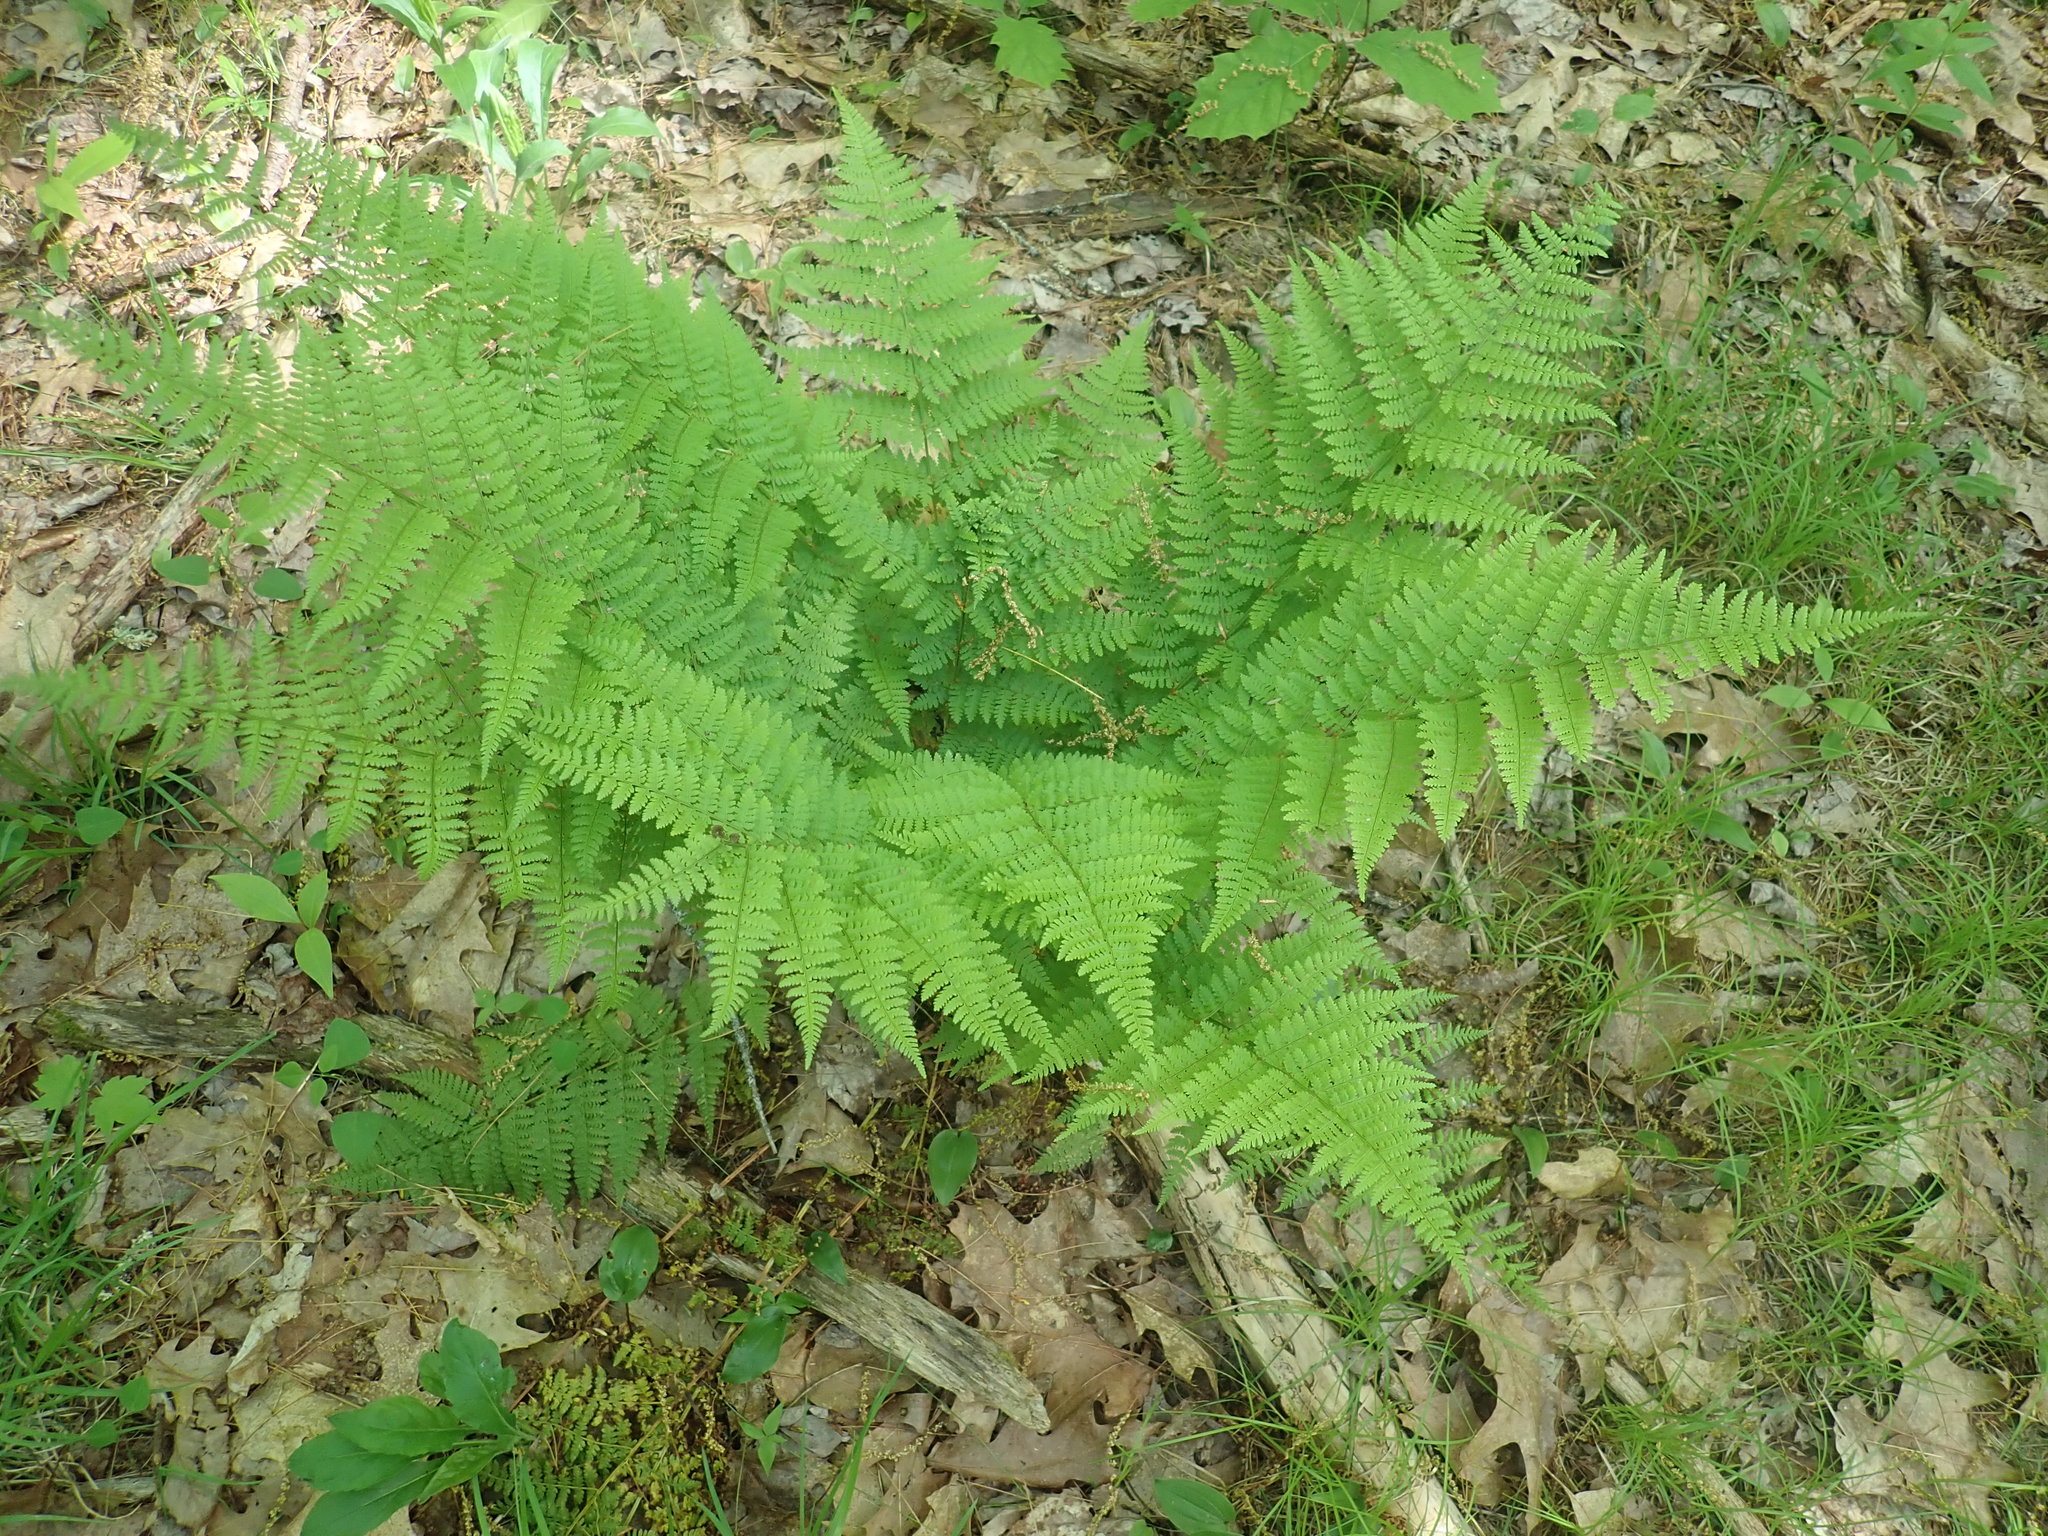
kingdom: Plantae
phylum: Tracheophyta
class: Polypodiopsida
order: Polypodiales
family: Dryopteridaceae
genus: Dryopteris
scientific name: Dryopteris intermedia
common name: Evergreen wood fern
